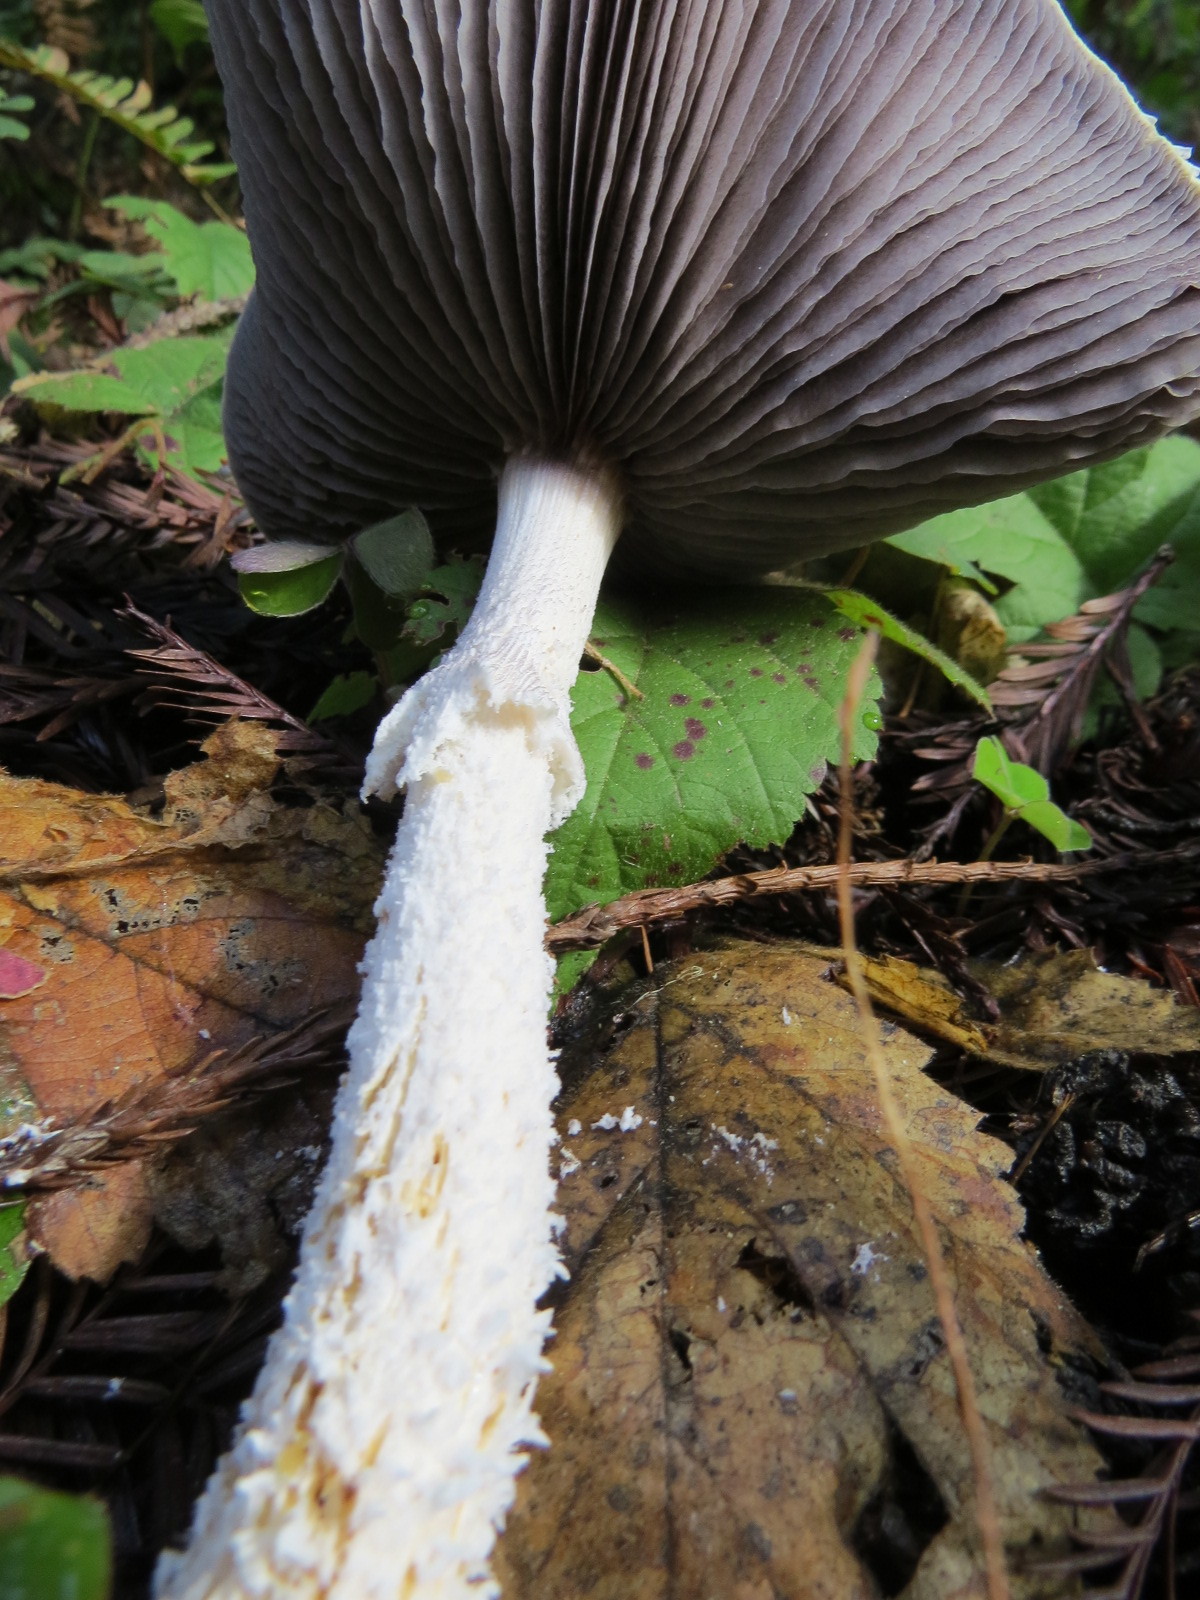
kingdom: Fungi
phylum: Basidiomycota
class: Agaricomycetes
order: Agaricales
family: Strophariaceae
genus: Stropharia
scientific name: Stropharia ambigua
